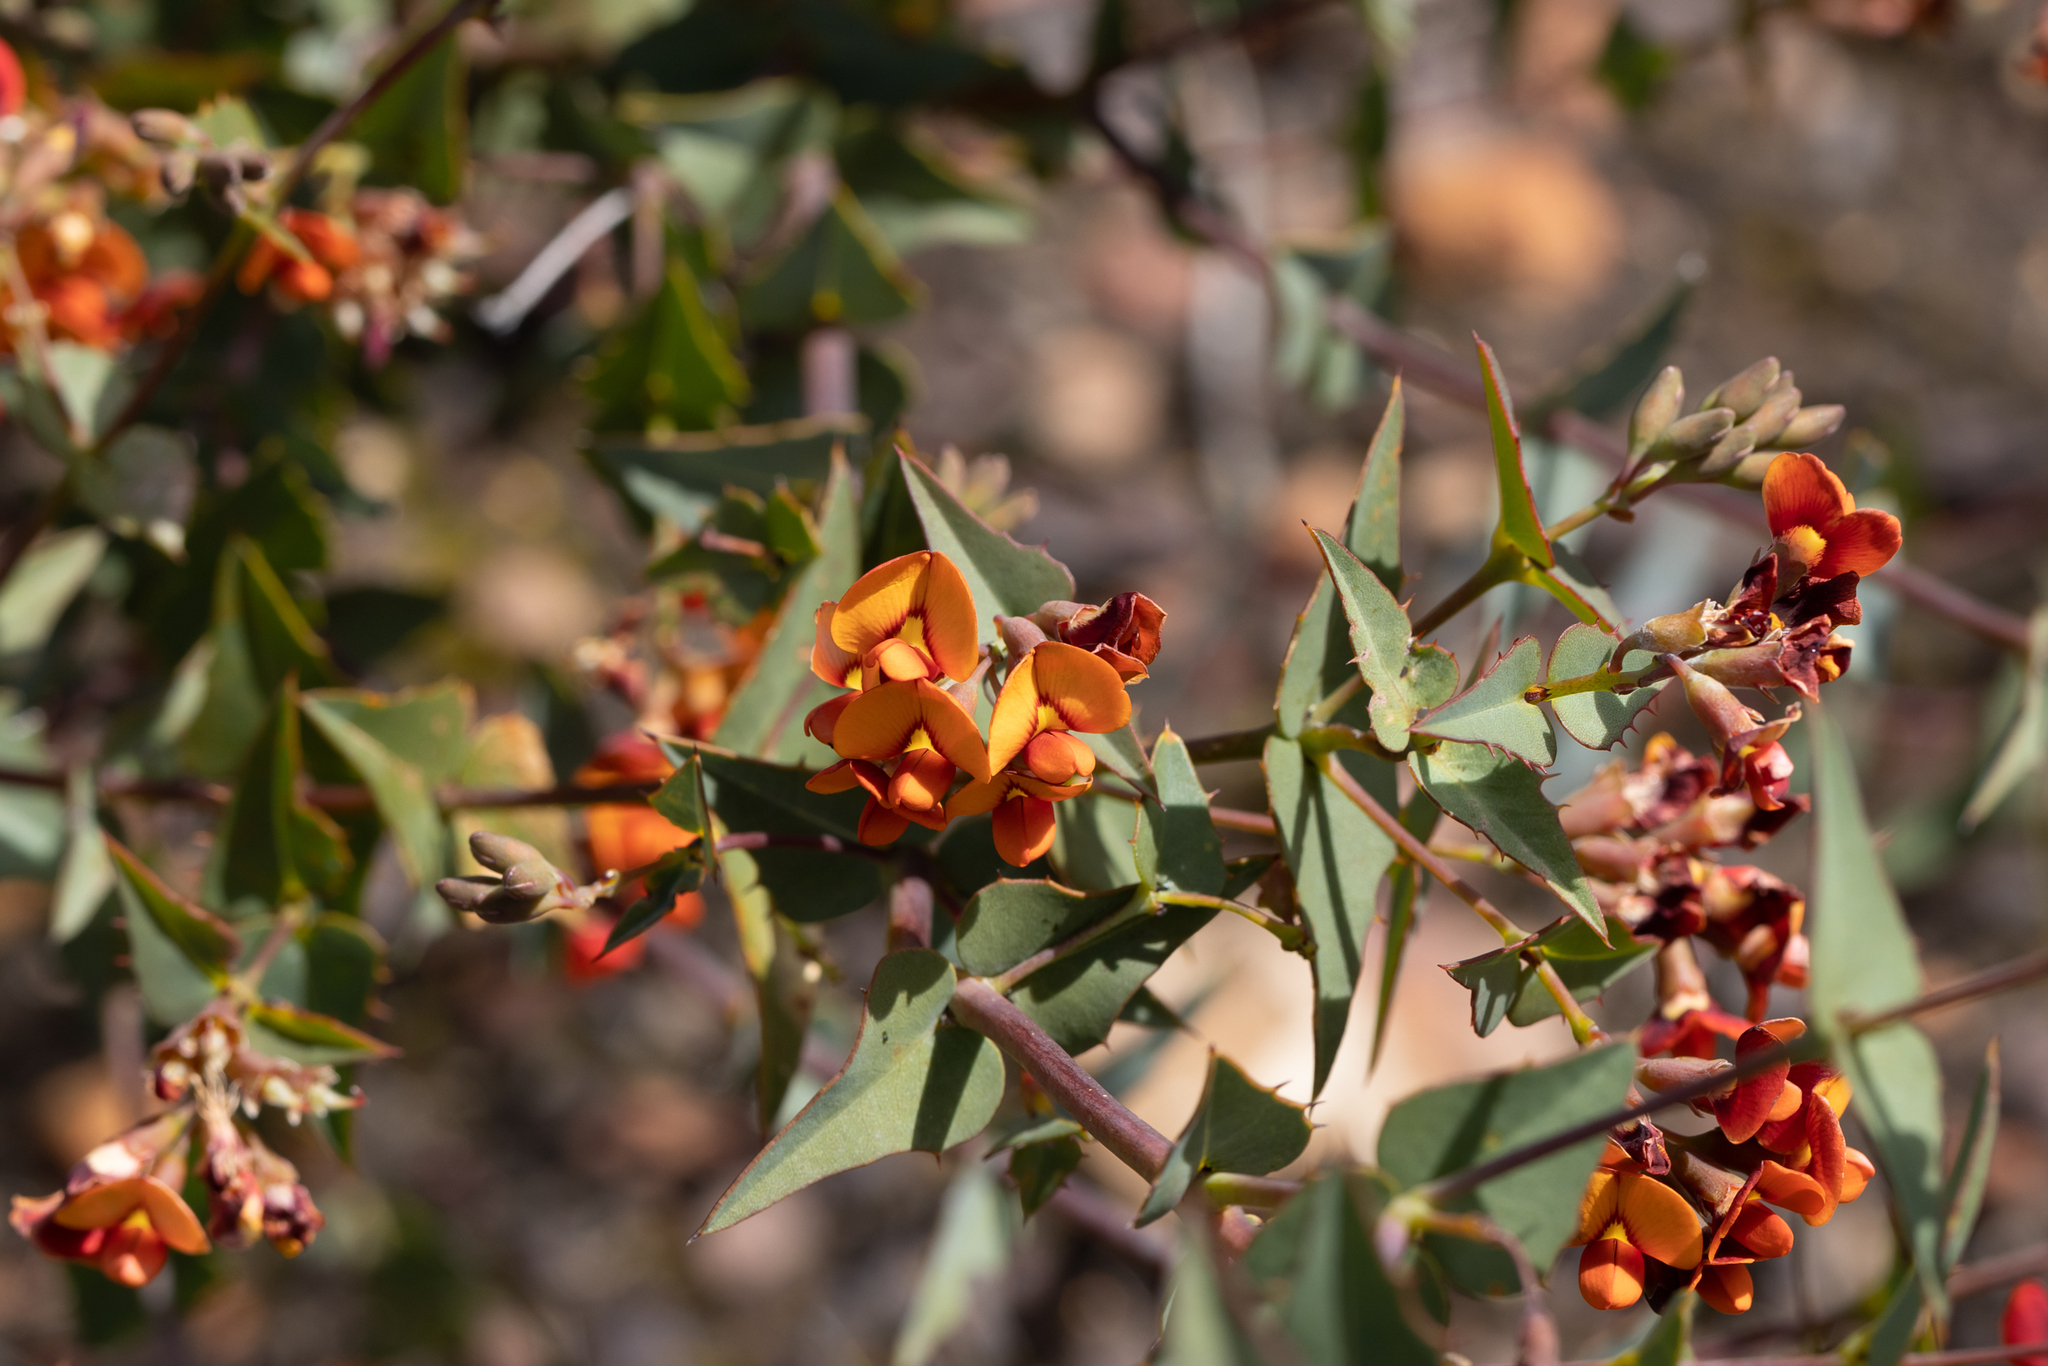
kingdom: Plantae
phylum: Tracheophyta
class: Magnoliopsida
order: Fabales
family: Fabaceae
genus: Gastrolobium
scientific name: Gastrolobium spinosum
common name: Prickly poison
